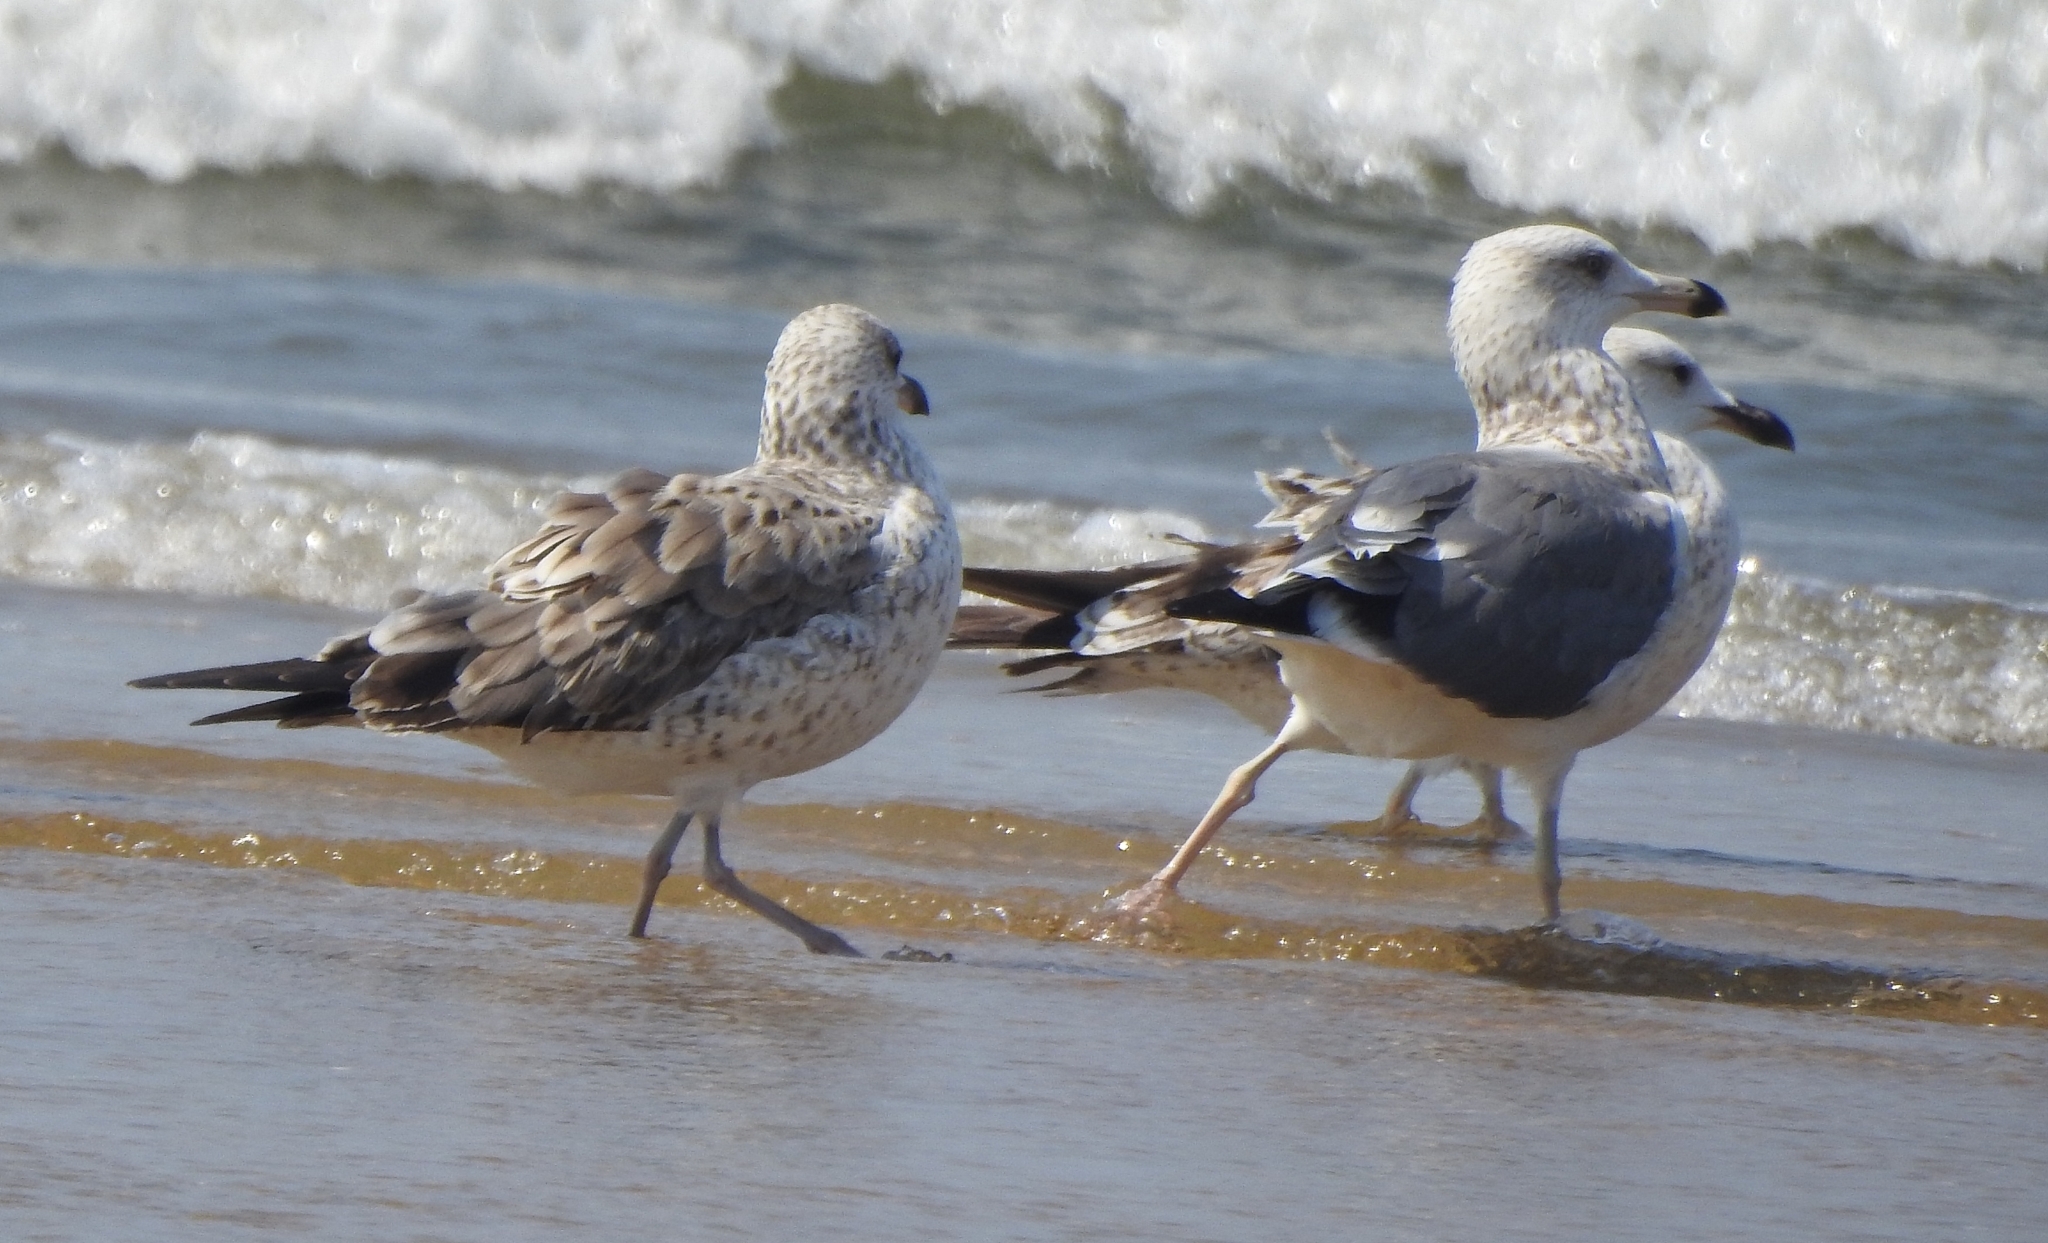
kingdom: Animalia
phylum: Chordata
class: Aves
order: Charadriiformes
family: Laridae
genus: Larus
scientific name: Larus fuscus
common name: Lesser black-backed gull
